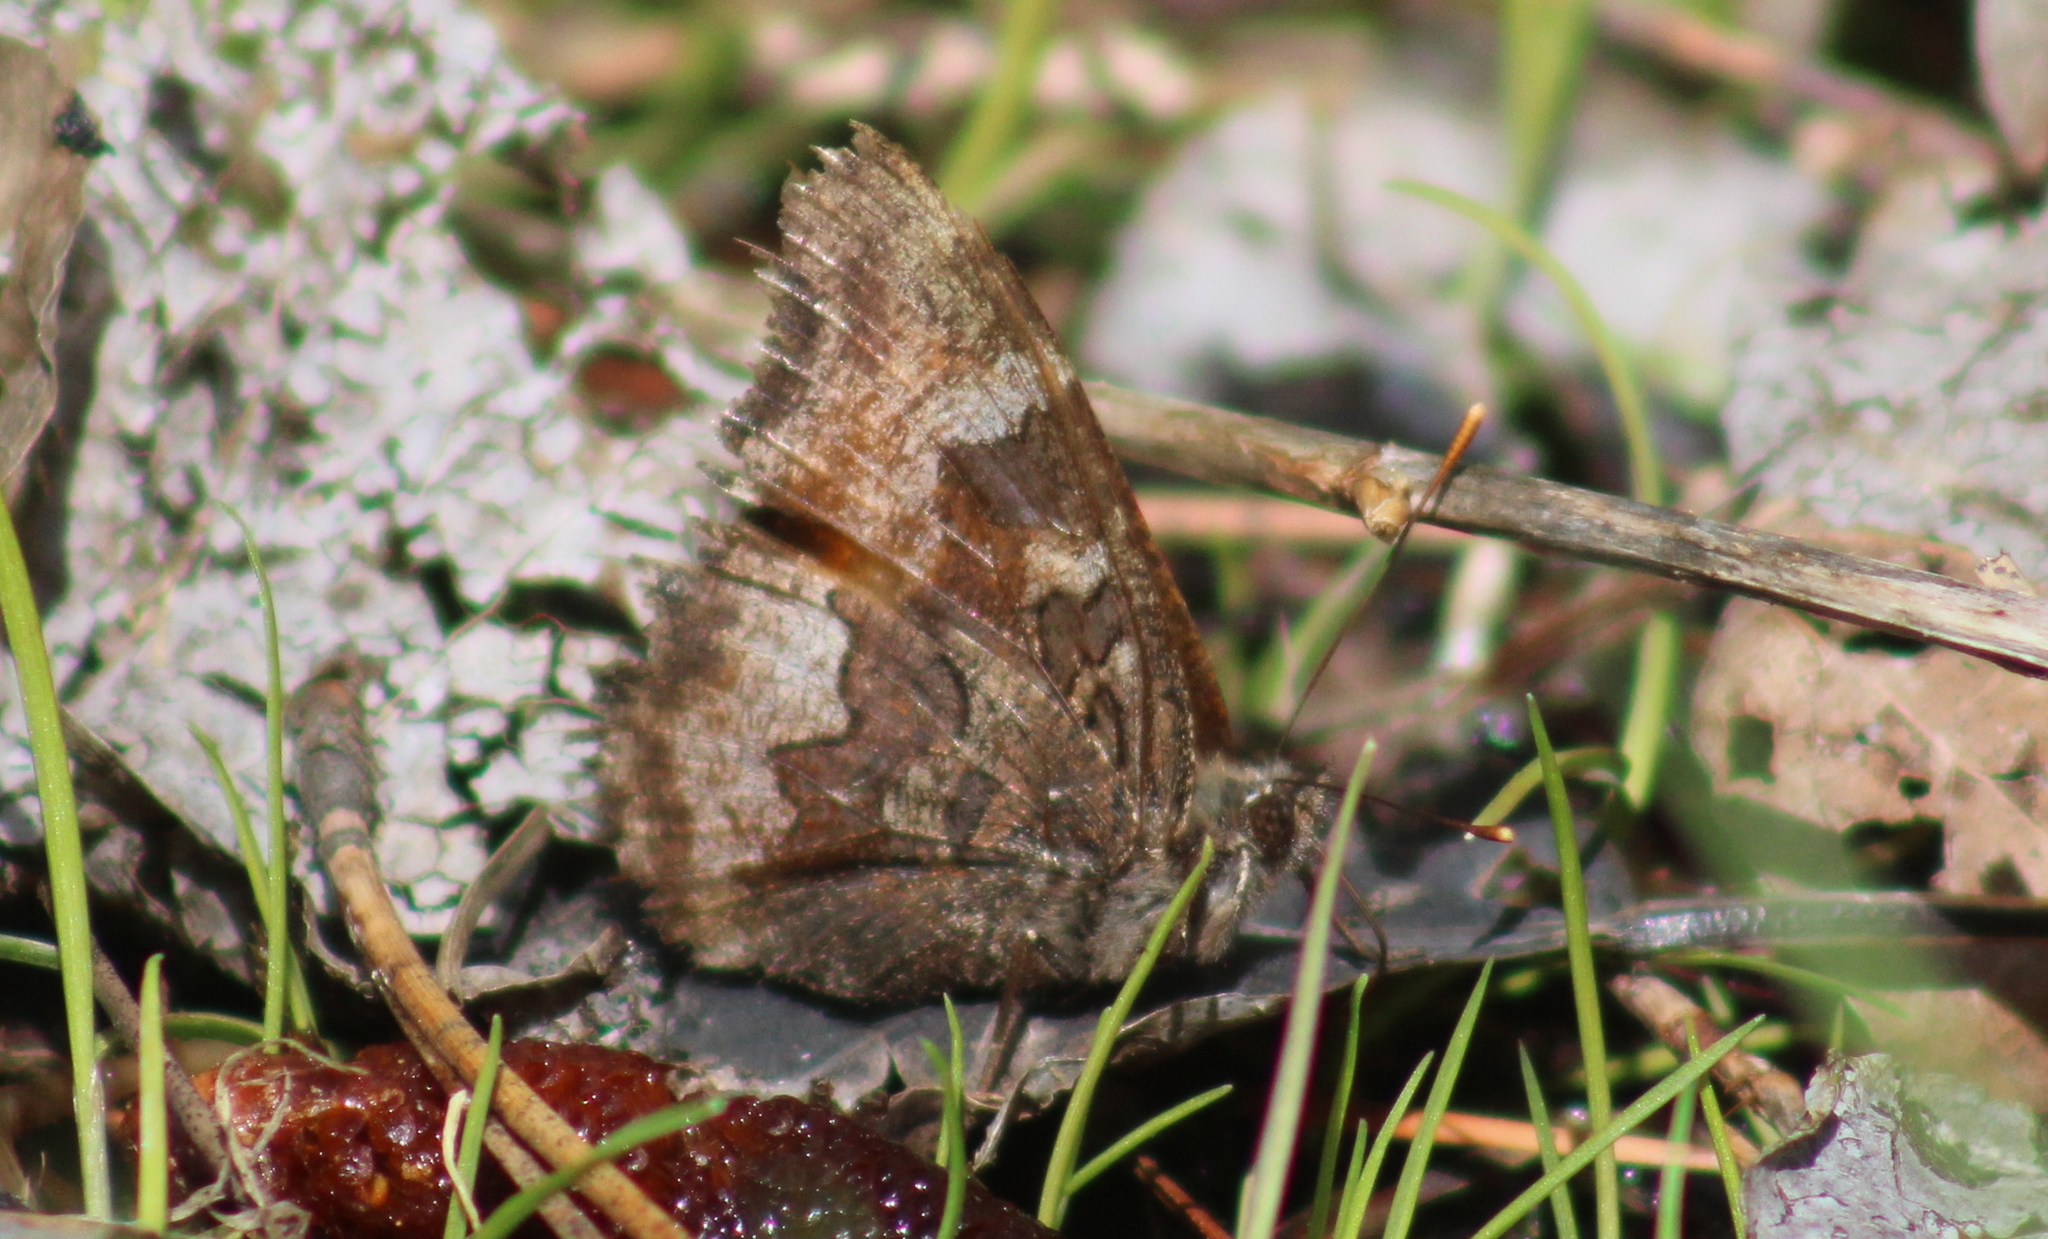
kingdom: Animalia
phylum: Arthropoda
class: Insecta
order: Lepidoptera
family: Nymphalidae
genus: Nymphalis
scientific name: Nymphalis californica
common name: California tortoiseshell
